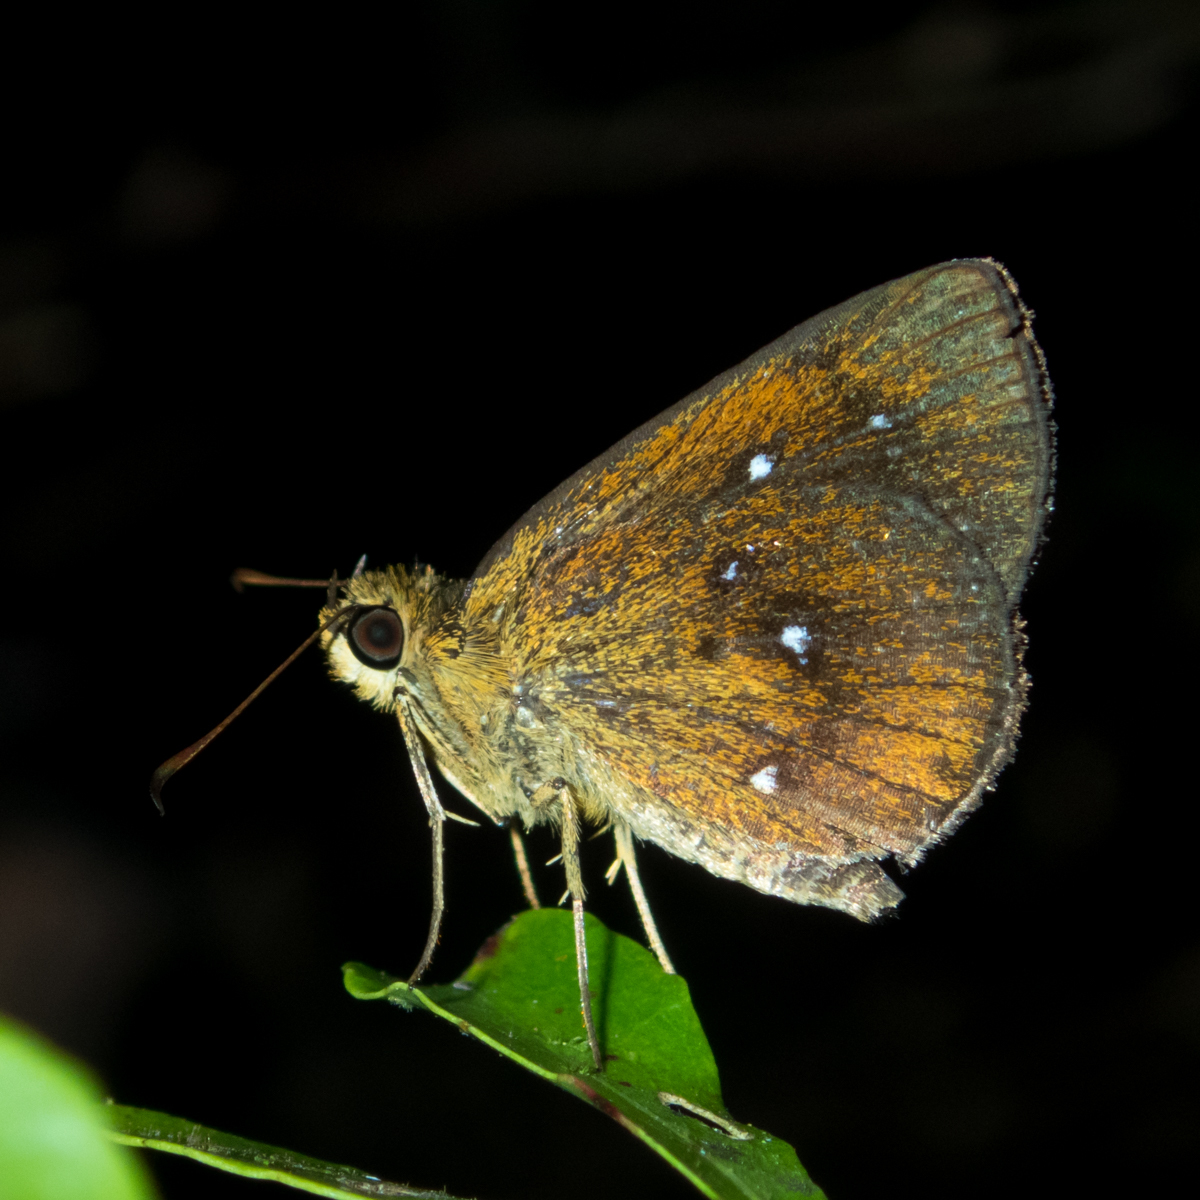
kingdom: Animalia
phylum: Arthropoda
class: Insecta
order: Lepidoptera
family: Hesperiidae
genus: Iambrix
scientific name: Iambrix salsala
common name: Chestnut bob
